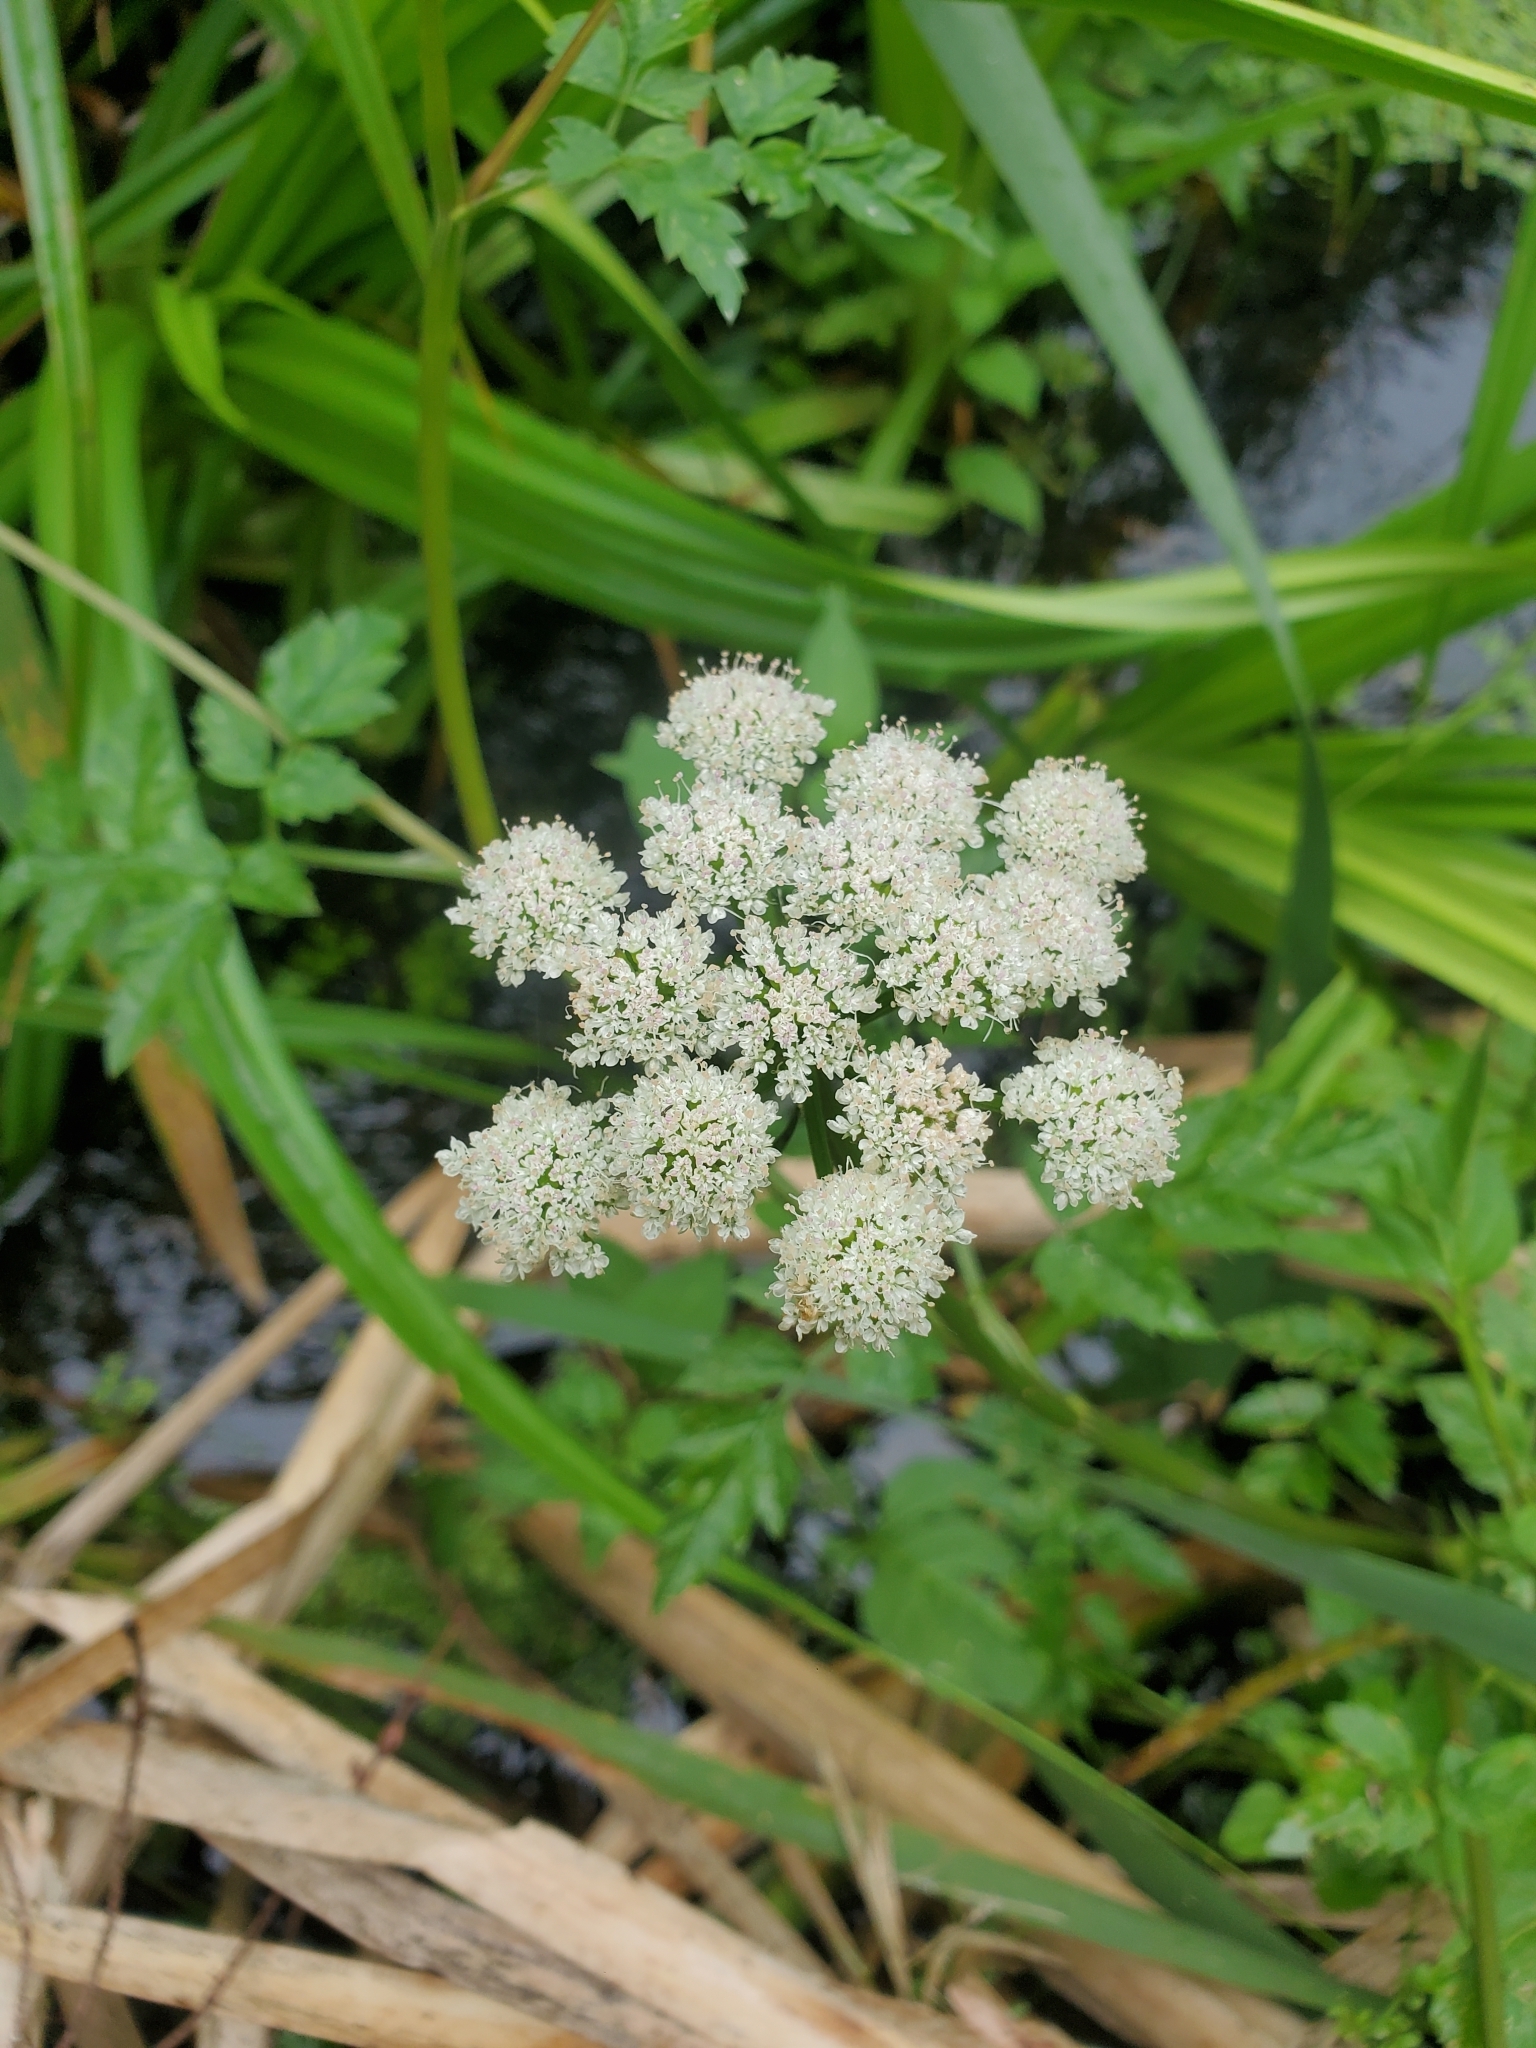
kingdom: Plantae
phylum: Tracheophyta
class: Magnoliopsida
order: Apiales
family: Apiaceae
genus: Oenanthe
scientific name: Oenanthe sarmentosa
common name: American water-parsley
